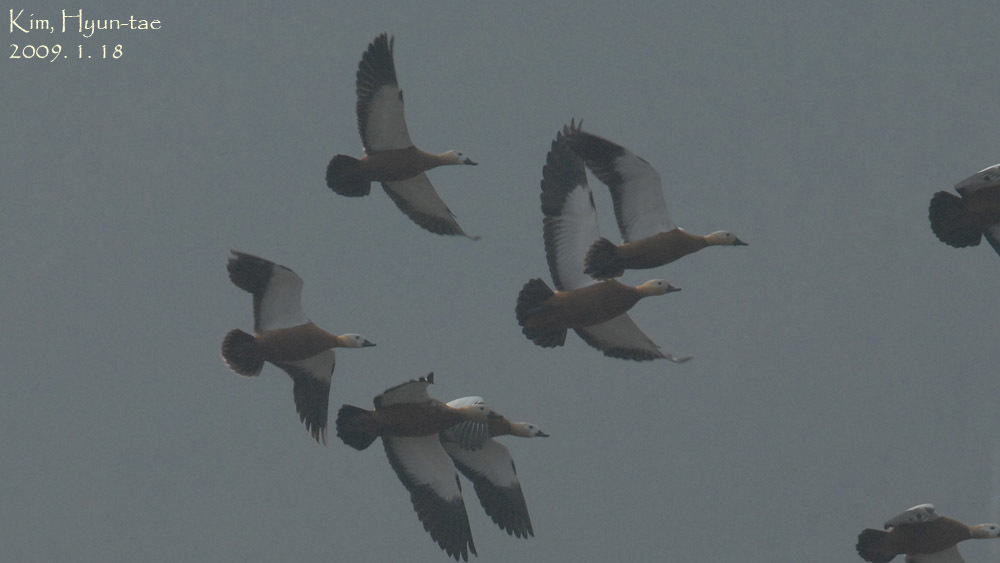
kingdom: Animalia
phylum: Chordata
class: Aves
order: Anseriformes
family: Anatidae
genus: Tadorna
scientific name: Tadorna ferruginea
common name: Ruddy shelduck
